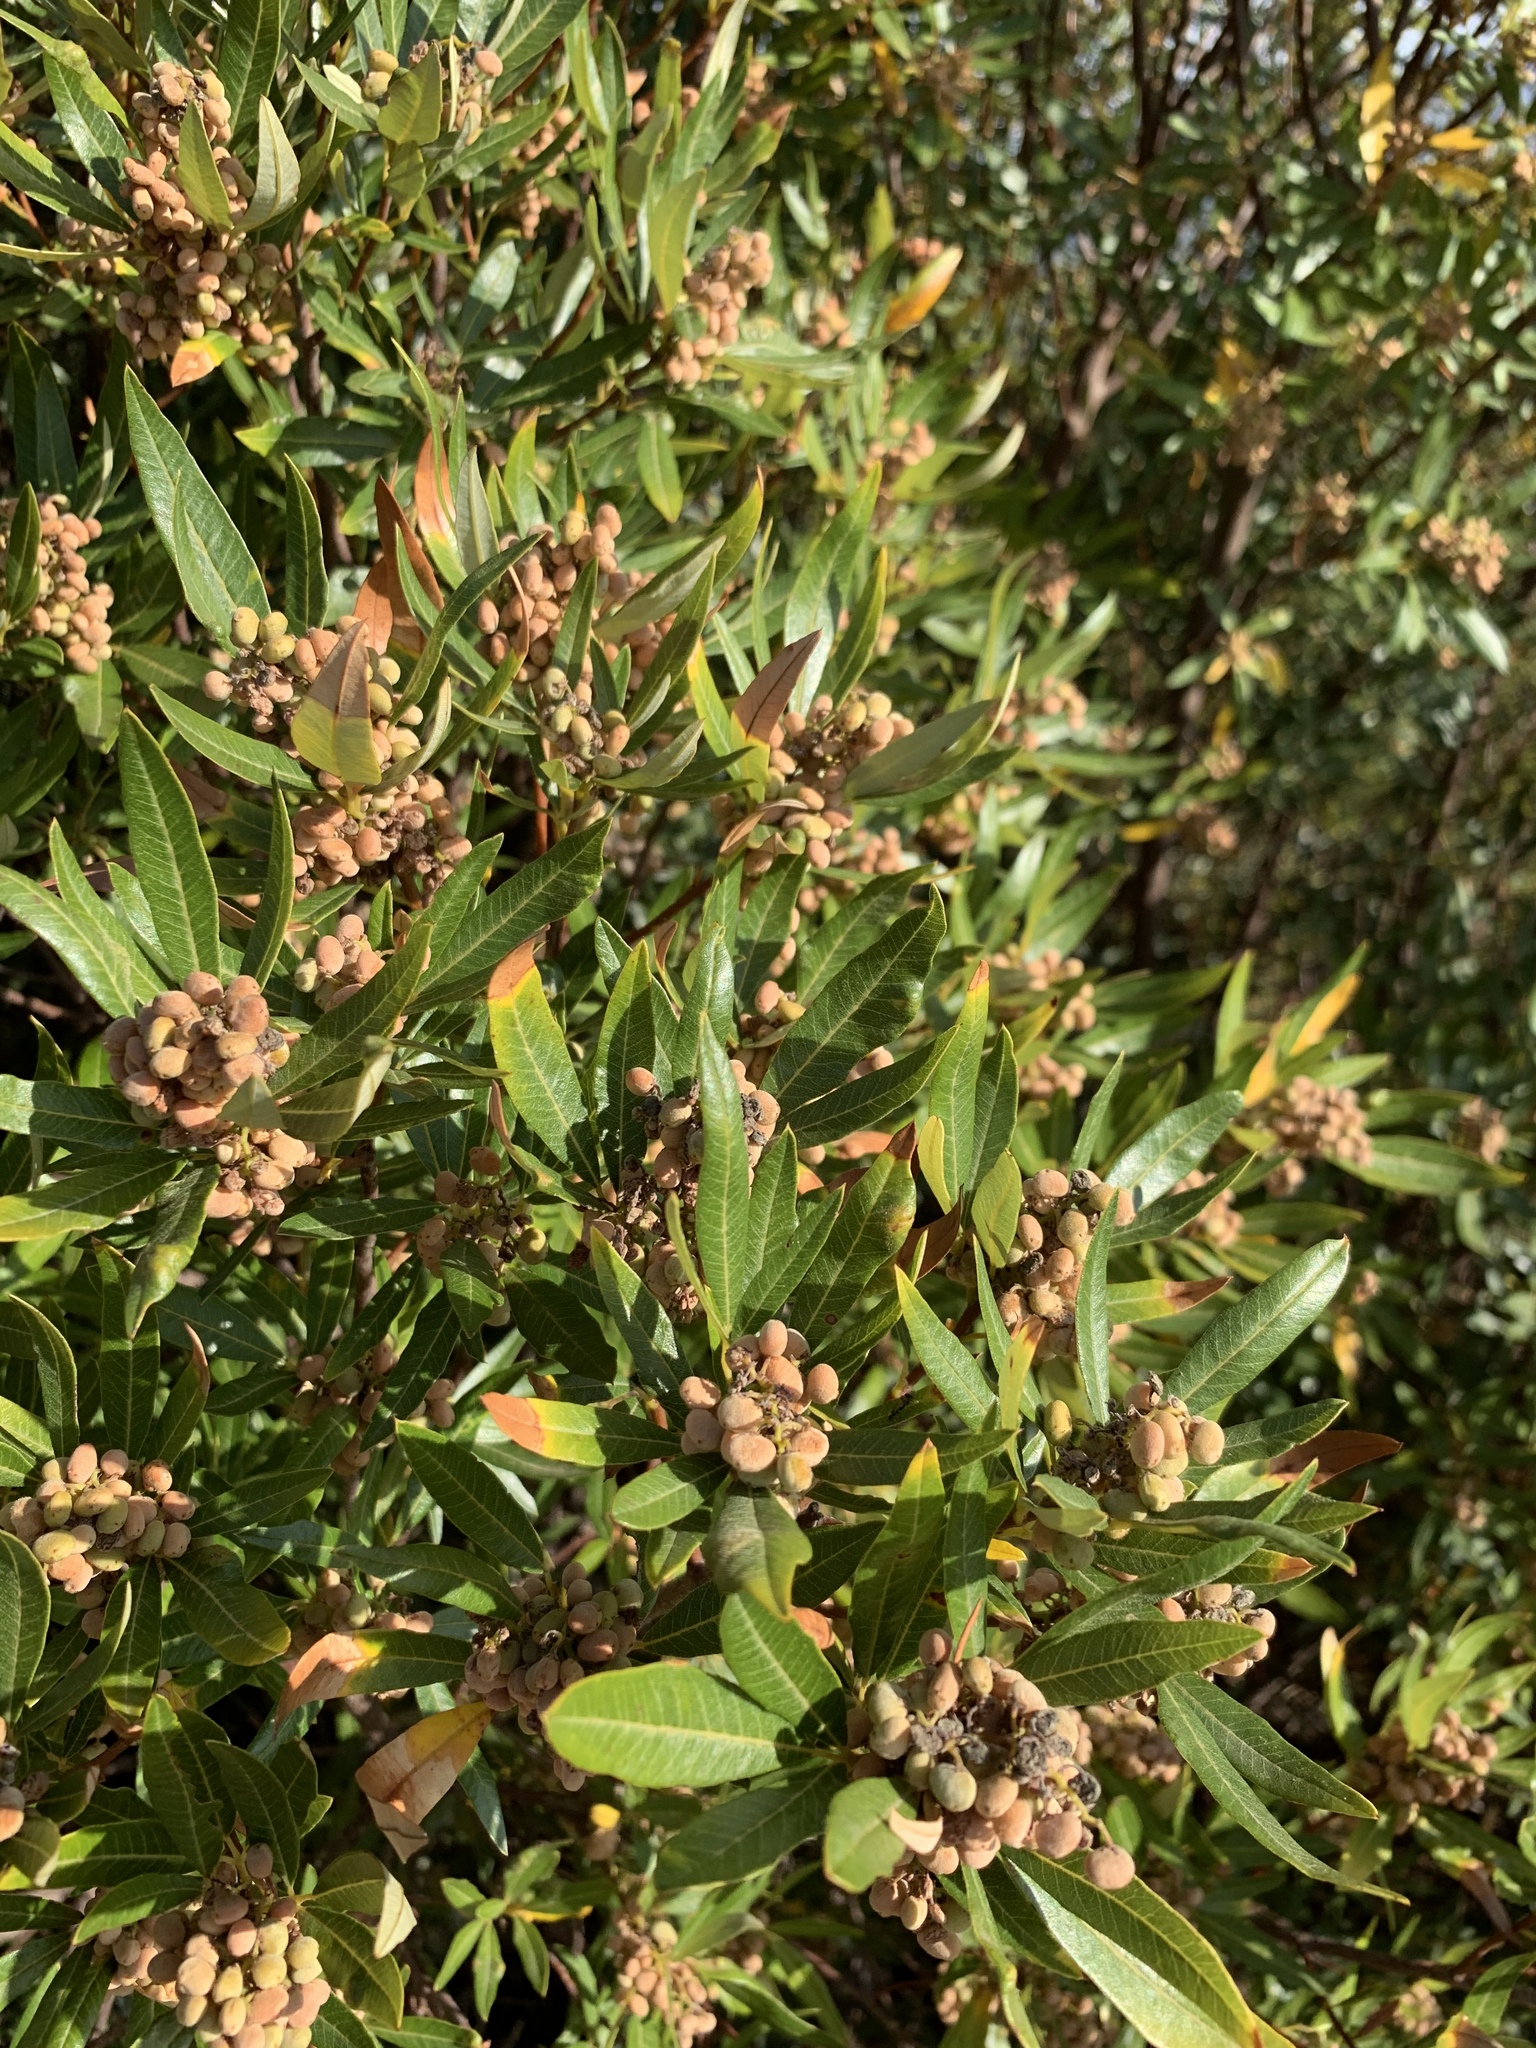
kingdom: Plantae
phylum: Tracheophyta
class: Magnoliopsida
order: Sapindales
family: Anacardiaceae
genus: Searsia
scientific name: Searsia angustifolia
